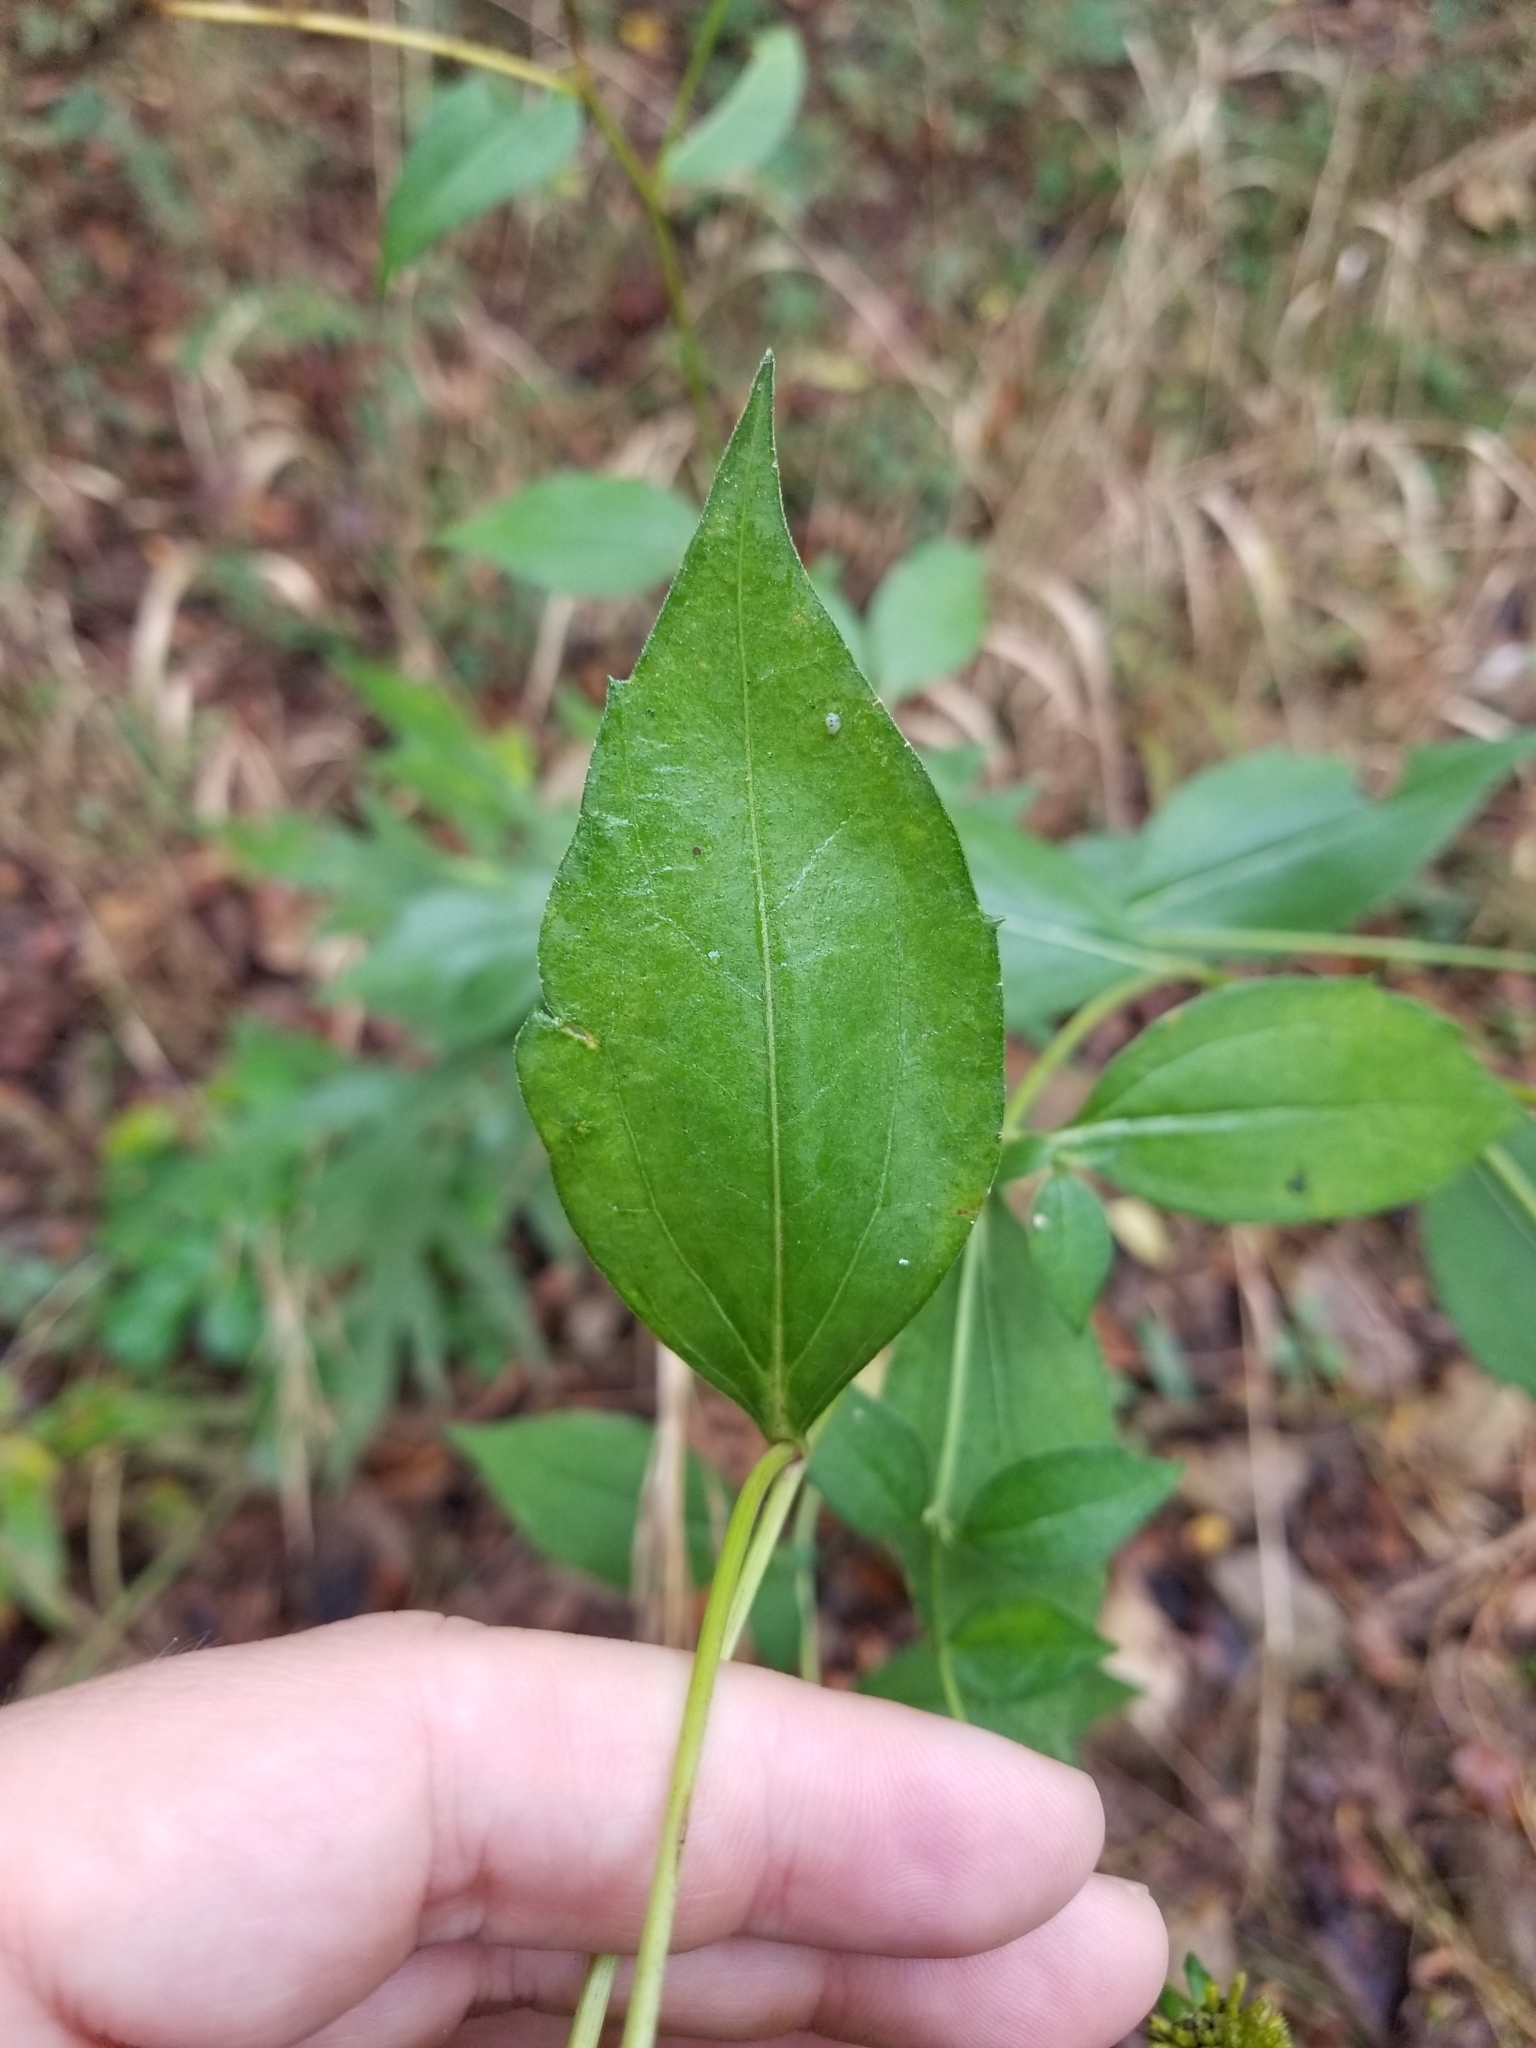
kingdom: Plantae
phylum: Tracheophyta
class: Magnoliopsida
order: Asterales
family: Asteraceae
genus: Rudbeckia
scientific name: Rudbeckia laciniata
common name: Coneflower
